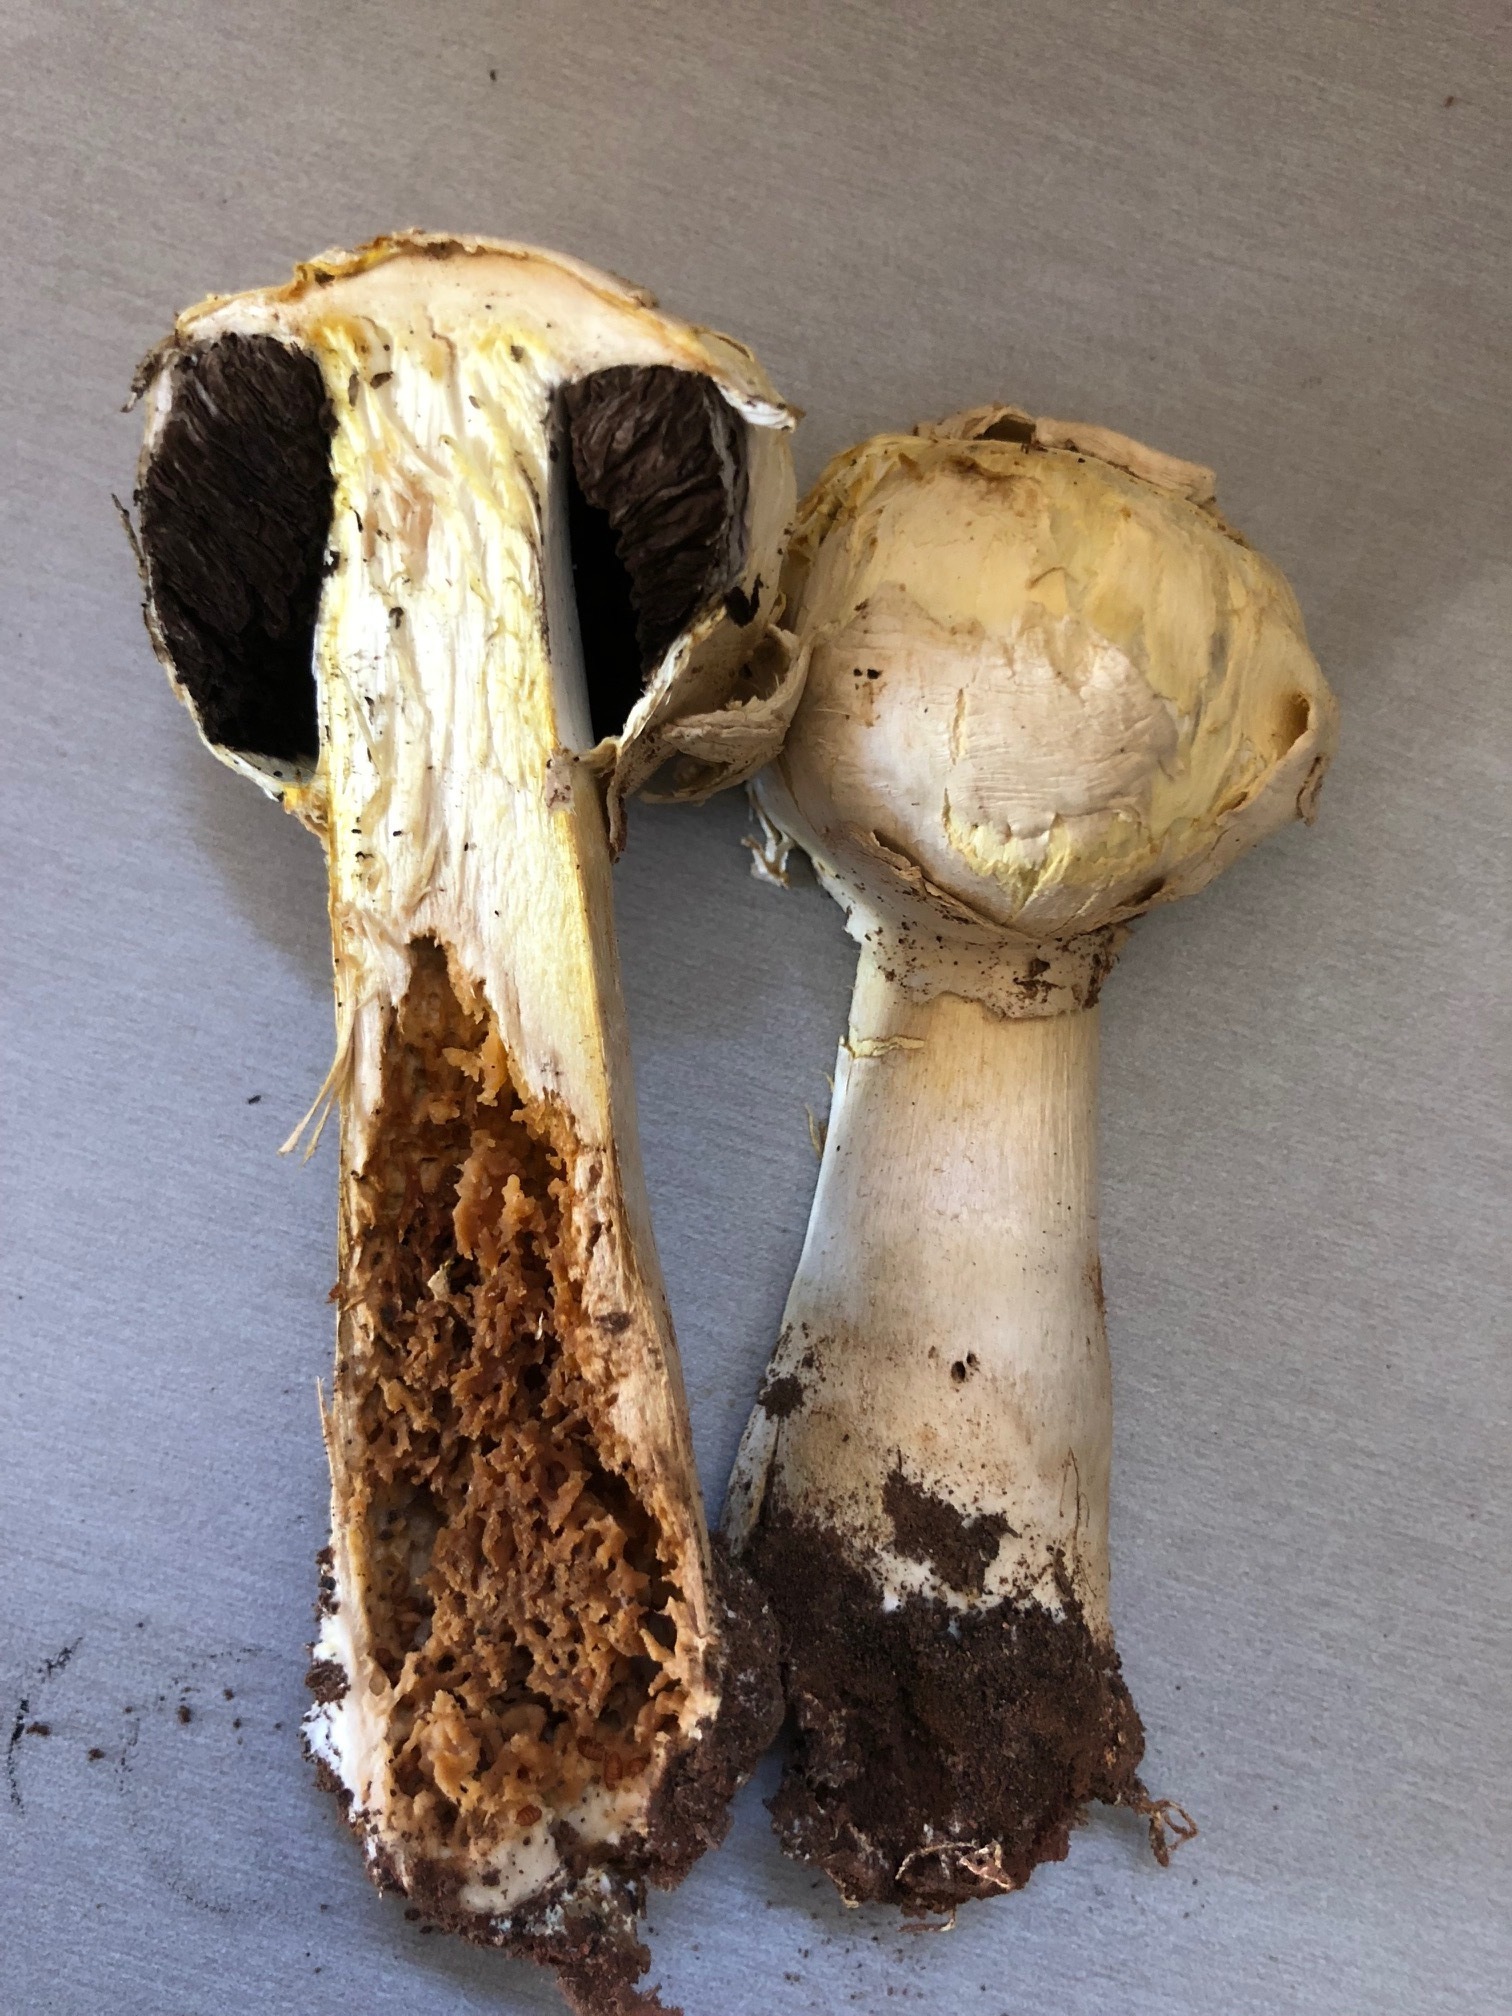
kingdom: Fungi
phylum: Basidiomycota
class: Agaricomycetes
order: Agaricales
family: Agaricaceae
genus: Agaricus
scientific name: Agaricus evertens
